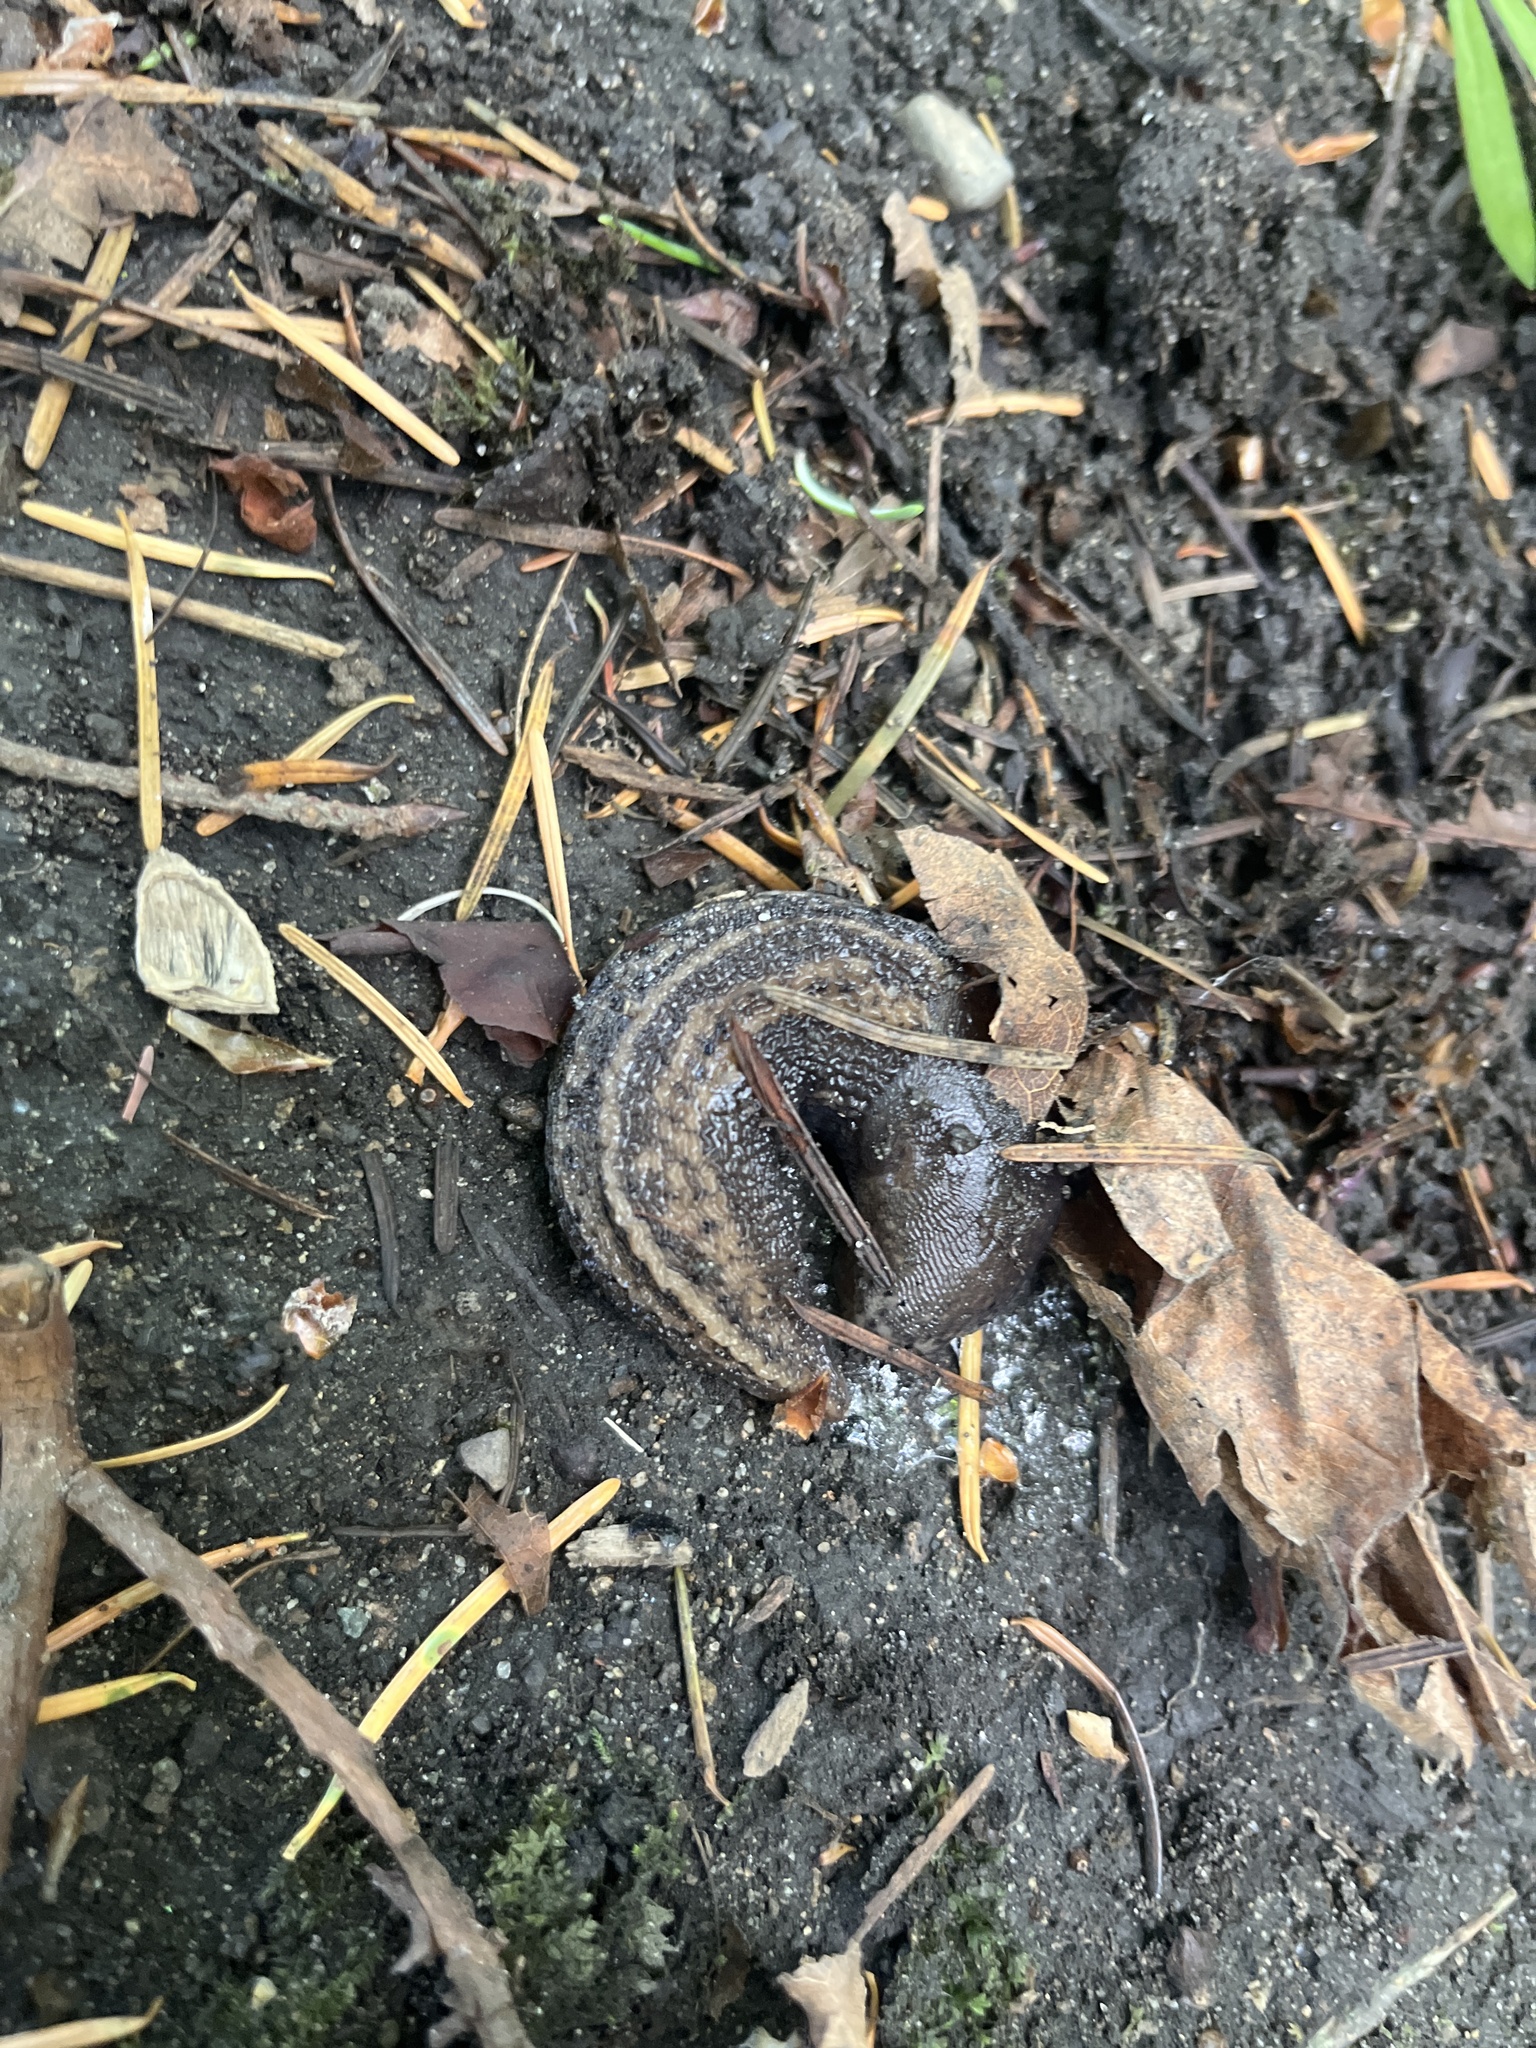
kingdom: Animalia
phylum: Mollusca
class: Gastropoda
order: Stylommatophora
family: Limacidae
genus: Limax
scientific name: Limax maximus
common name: Great grey slug
